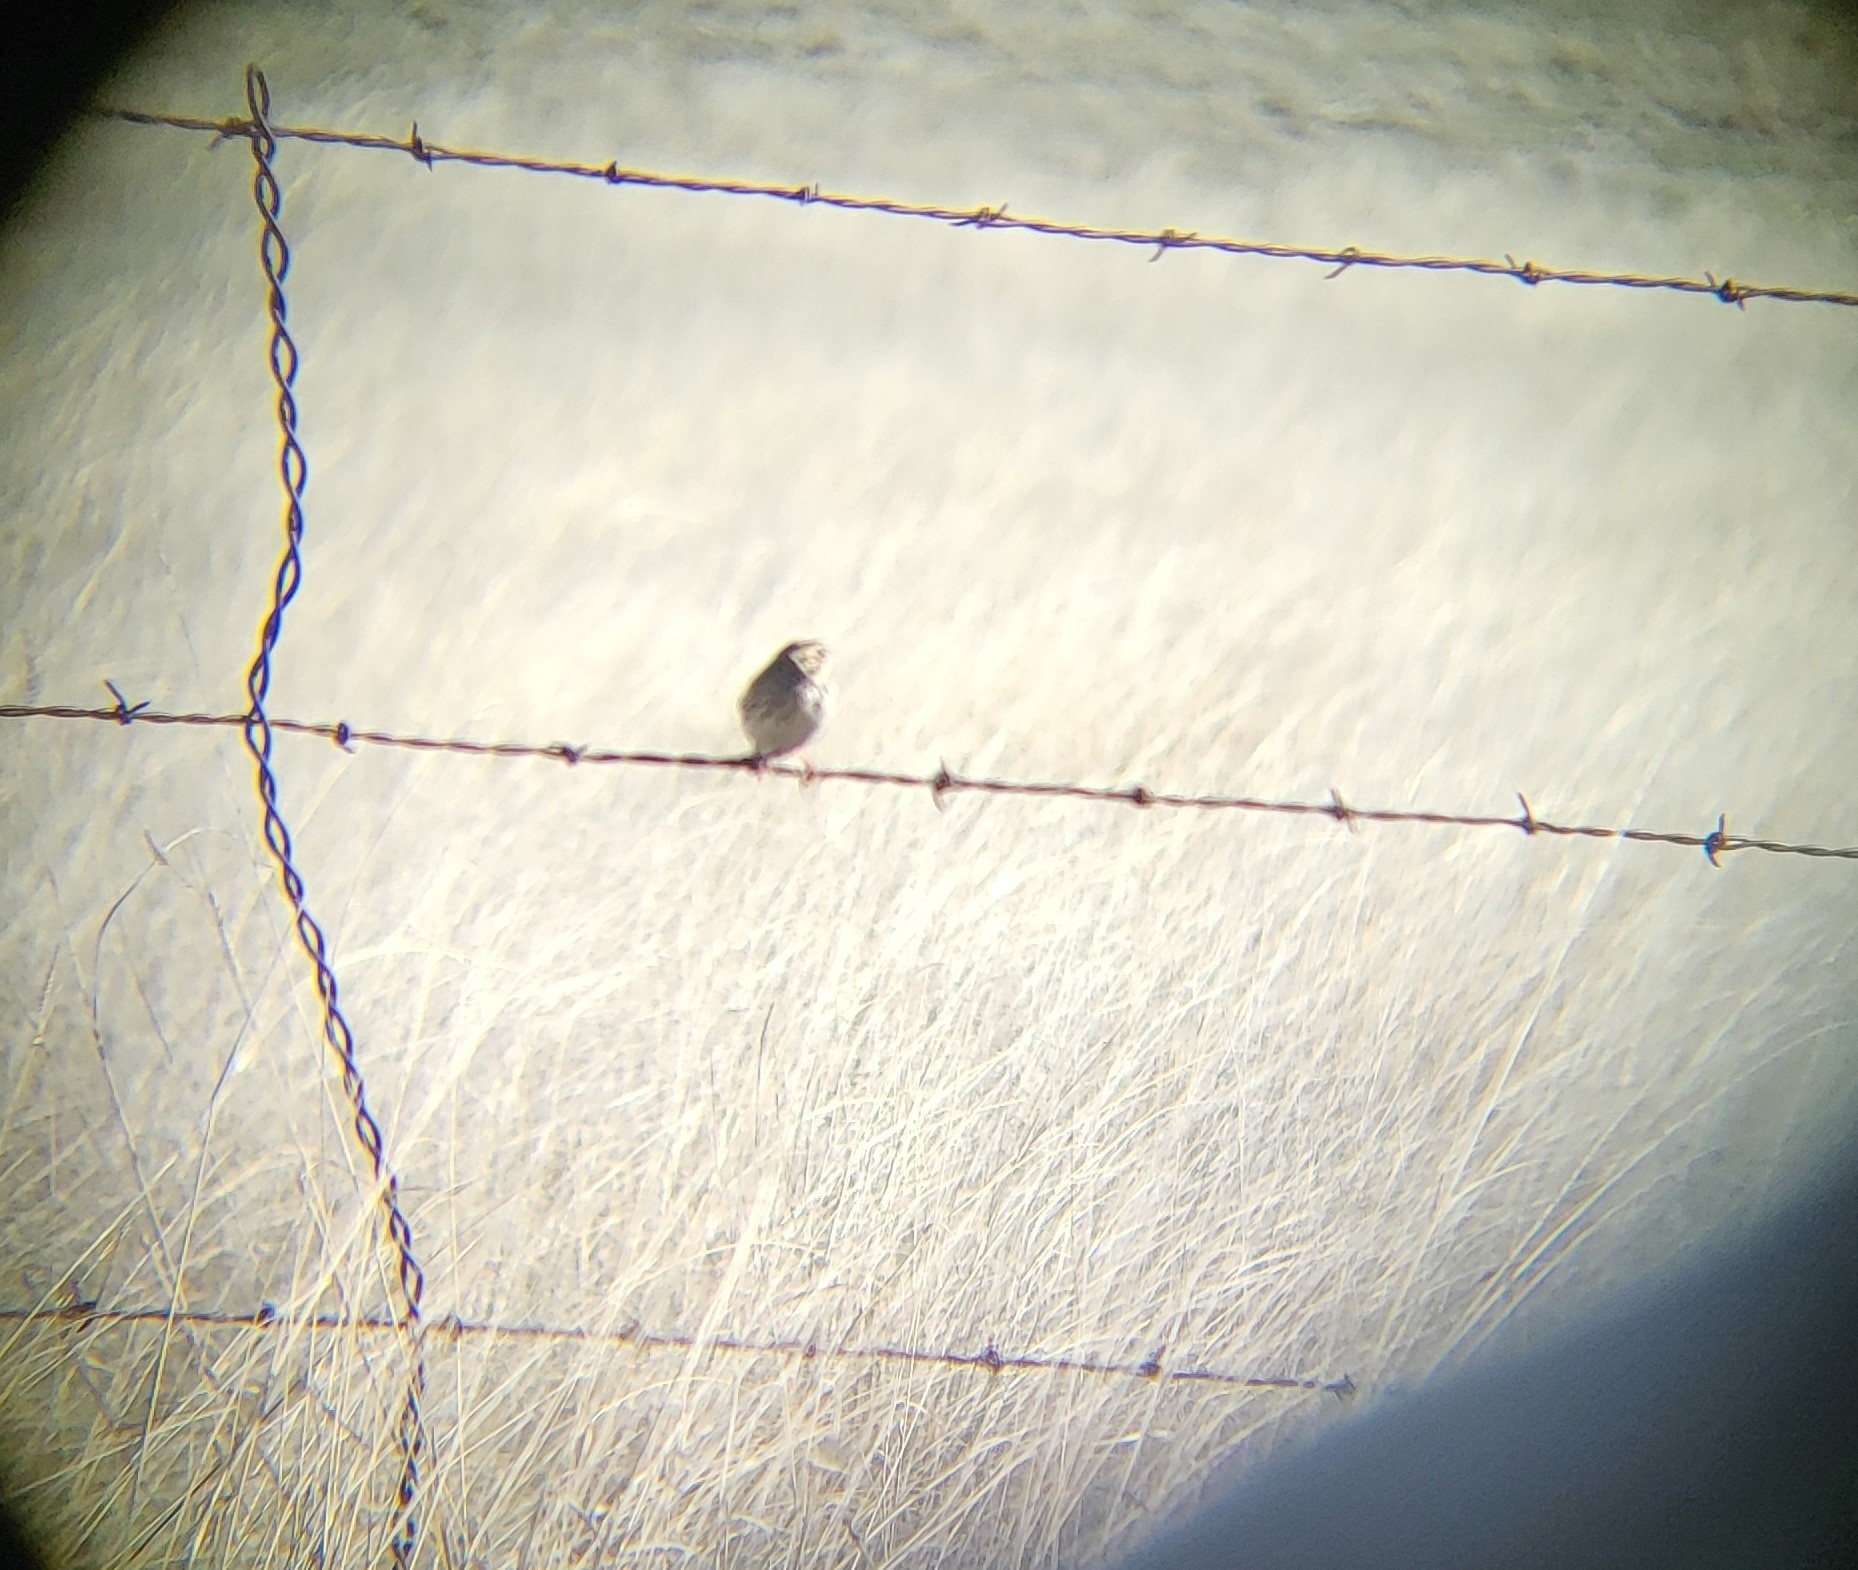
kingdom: Animalia
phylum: Chordata
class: Aves
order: Passeriformes
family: Passerellidae
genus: Centronyx
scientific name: Centronyx bairdii
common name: Baird's sparrow
